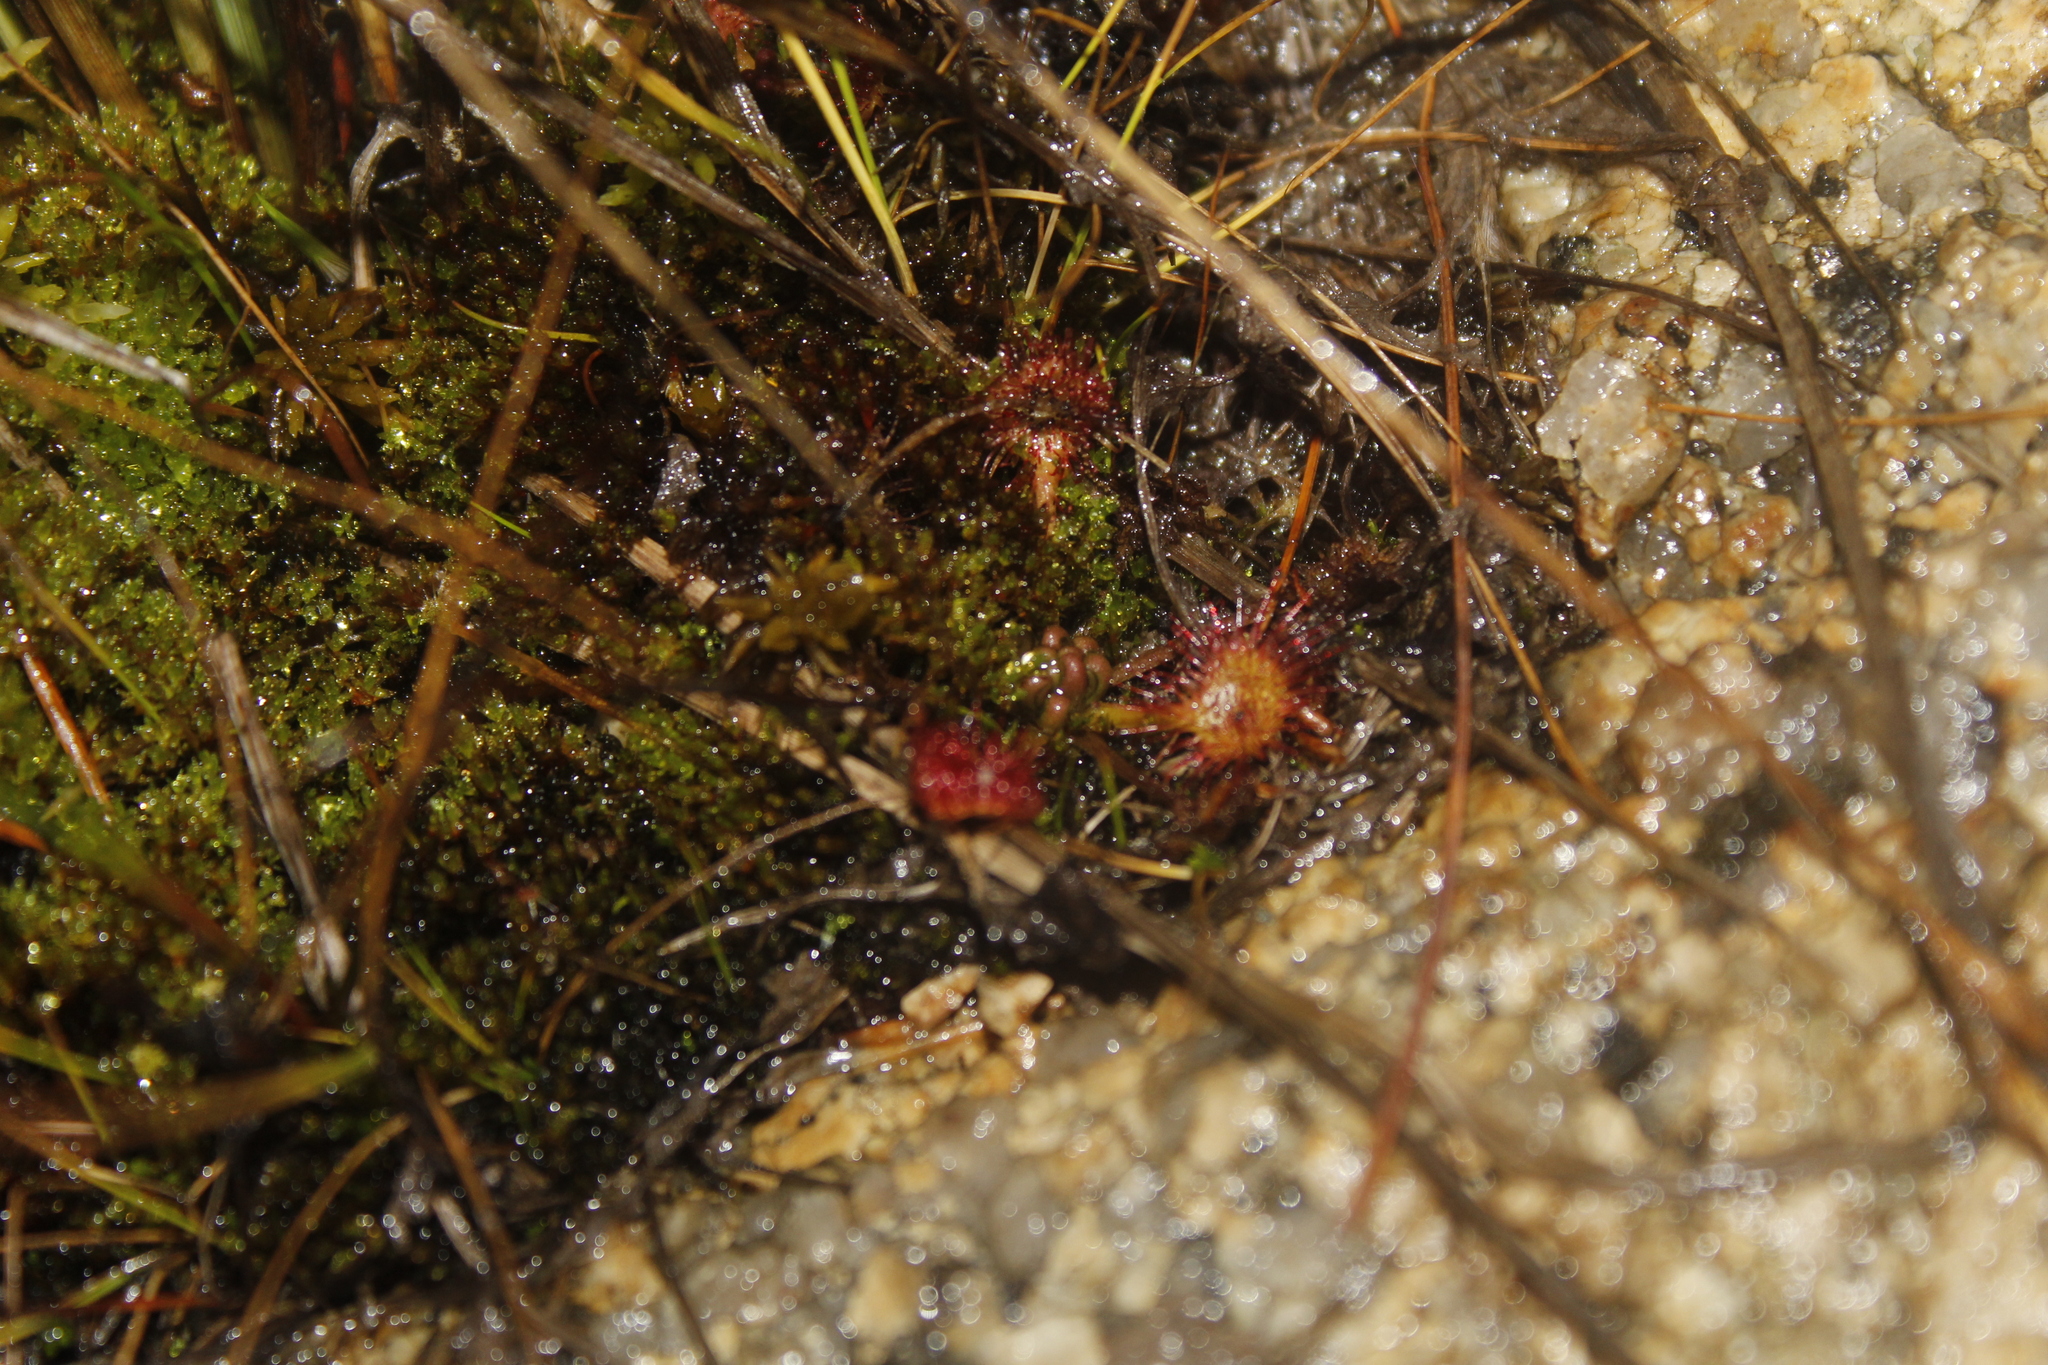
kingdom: Plantae
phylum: Tracheophyta
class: Magnoliopsida
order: Caryophyllales
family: Droseraceae
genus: Drosera
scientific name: Drosera rotundifolia
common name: Round-leaved sundew
